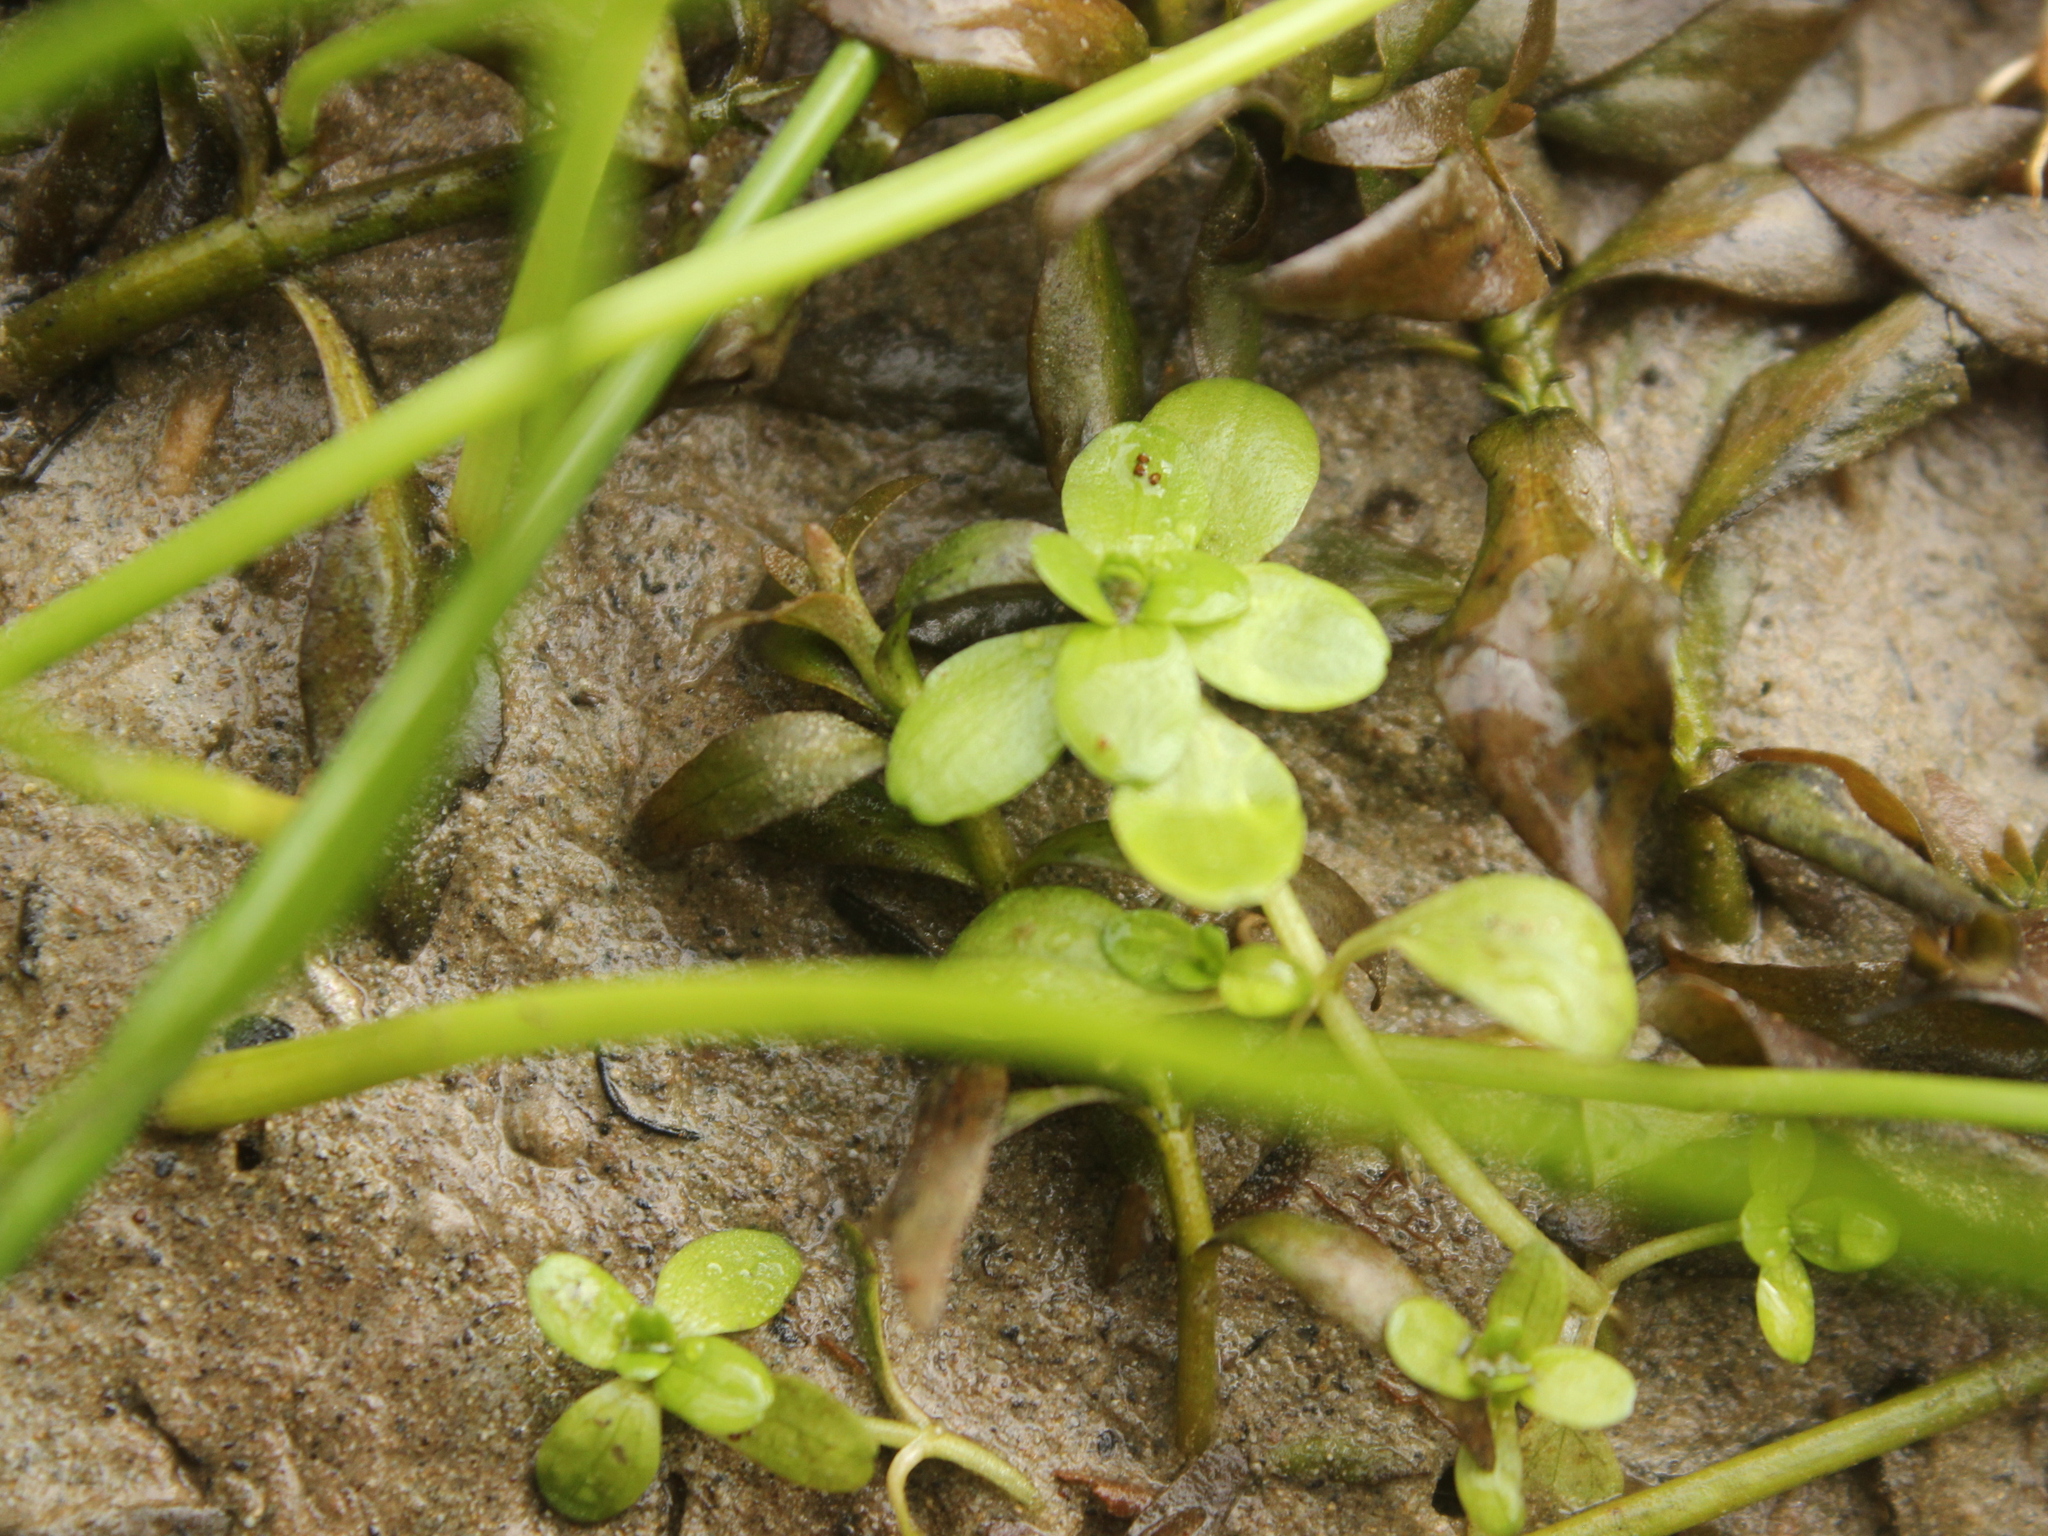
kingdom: Plantae
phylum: Tracheophyta
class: Magnoliopsida
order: Lamiales
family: Plantaginaceae
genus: Callitriche
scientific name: Callitriche stagnalis
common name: Common water-starwort
